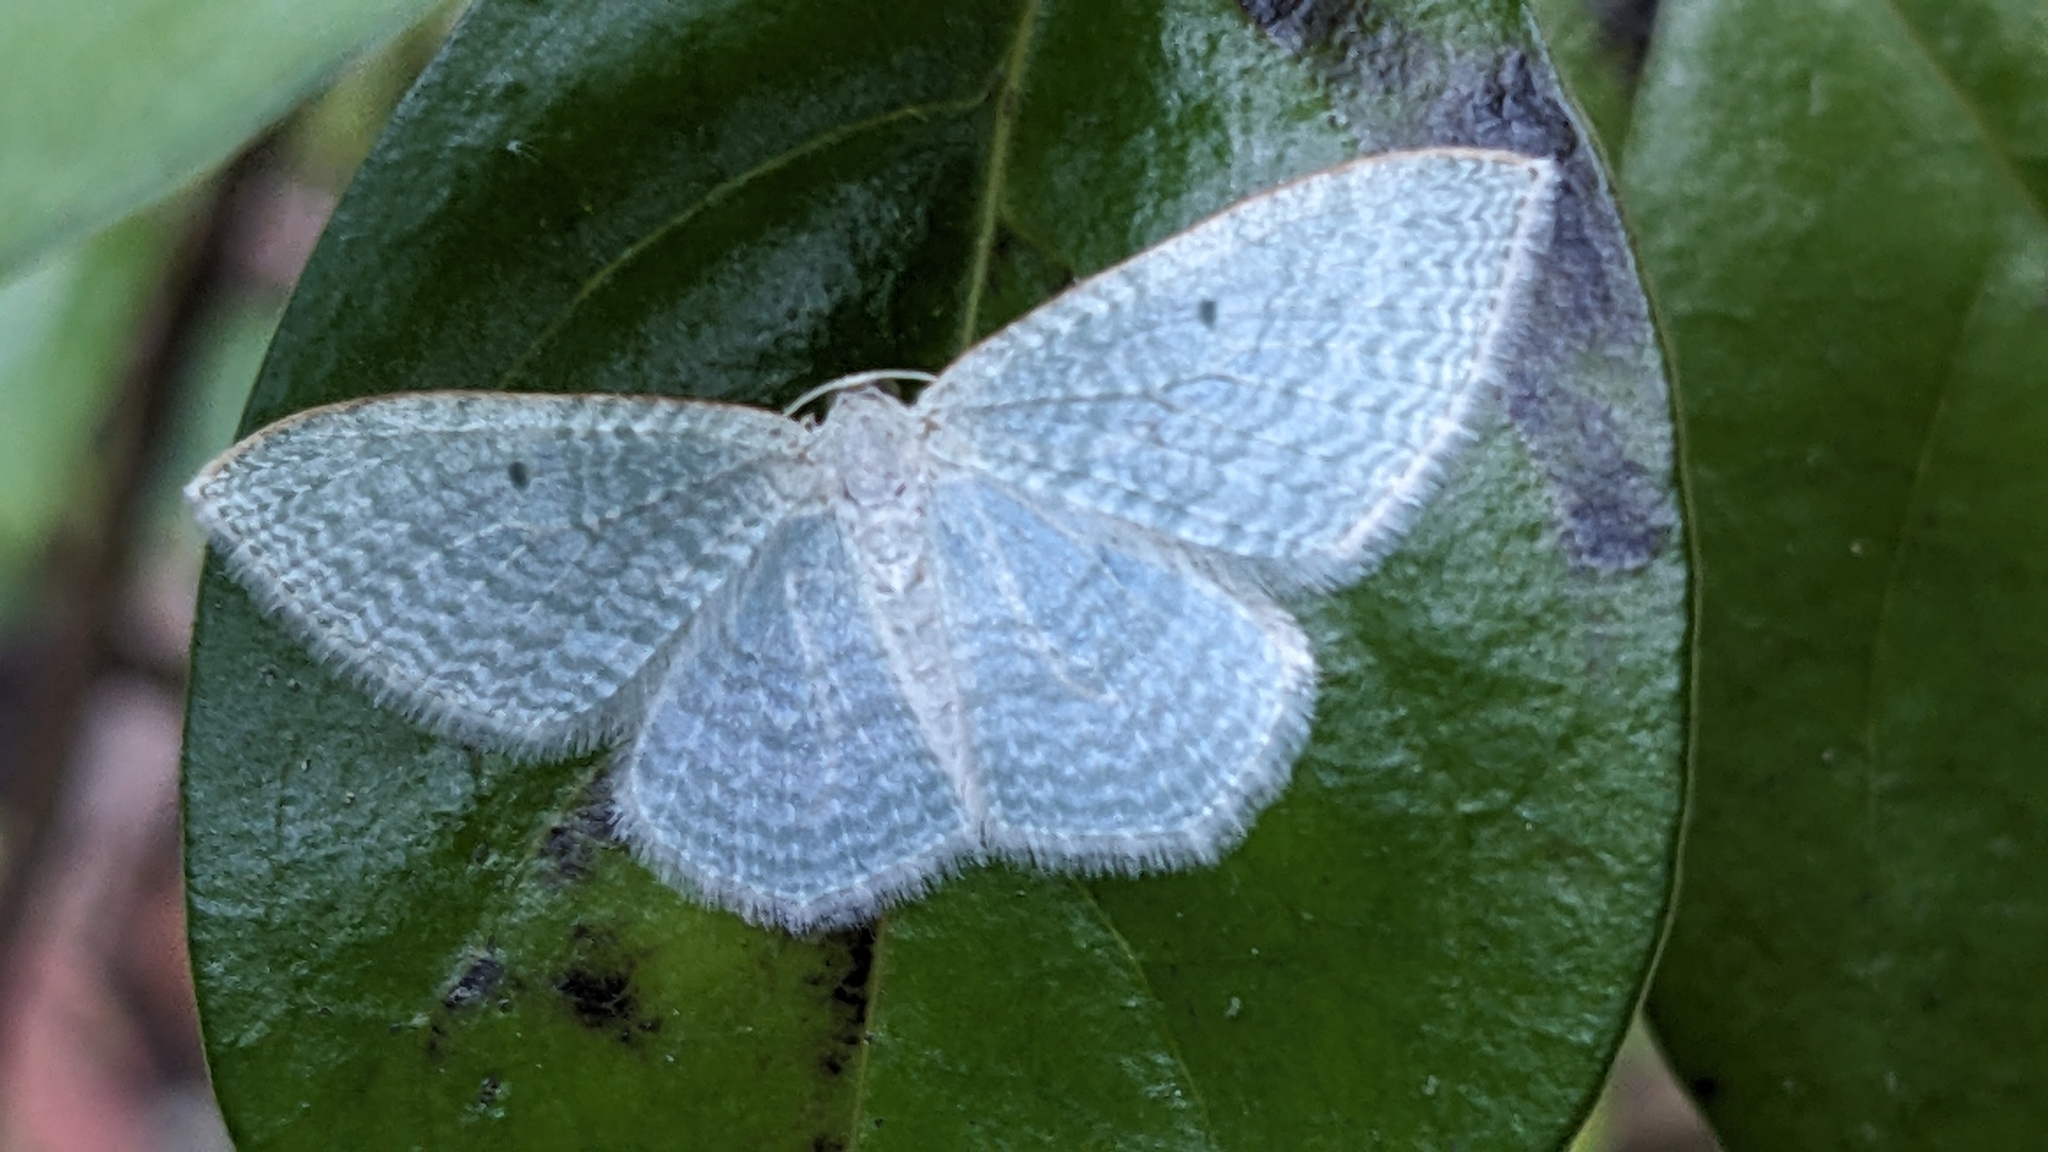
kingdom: Animalia
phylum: Arthropoda
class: Insecta
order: Lepidoptera
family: Geometridae
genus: Poecilasthena
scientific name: Poecilasthena pulchraria
